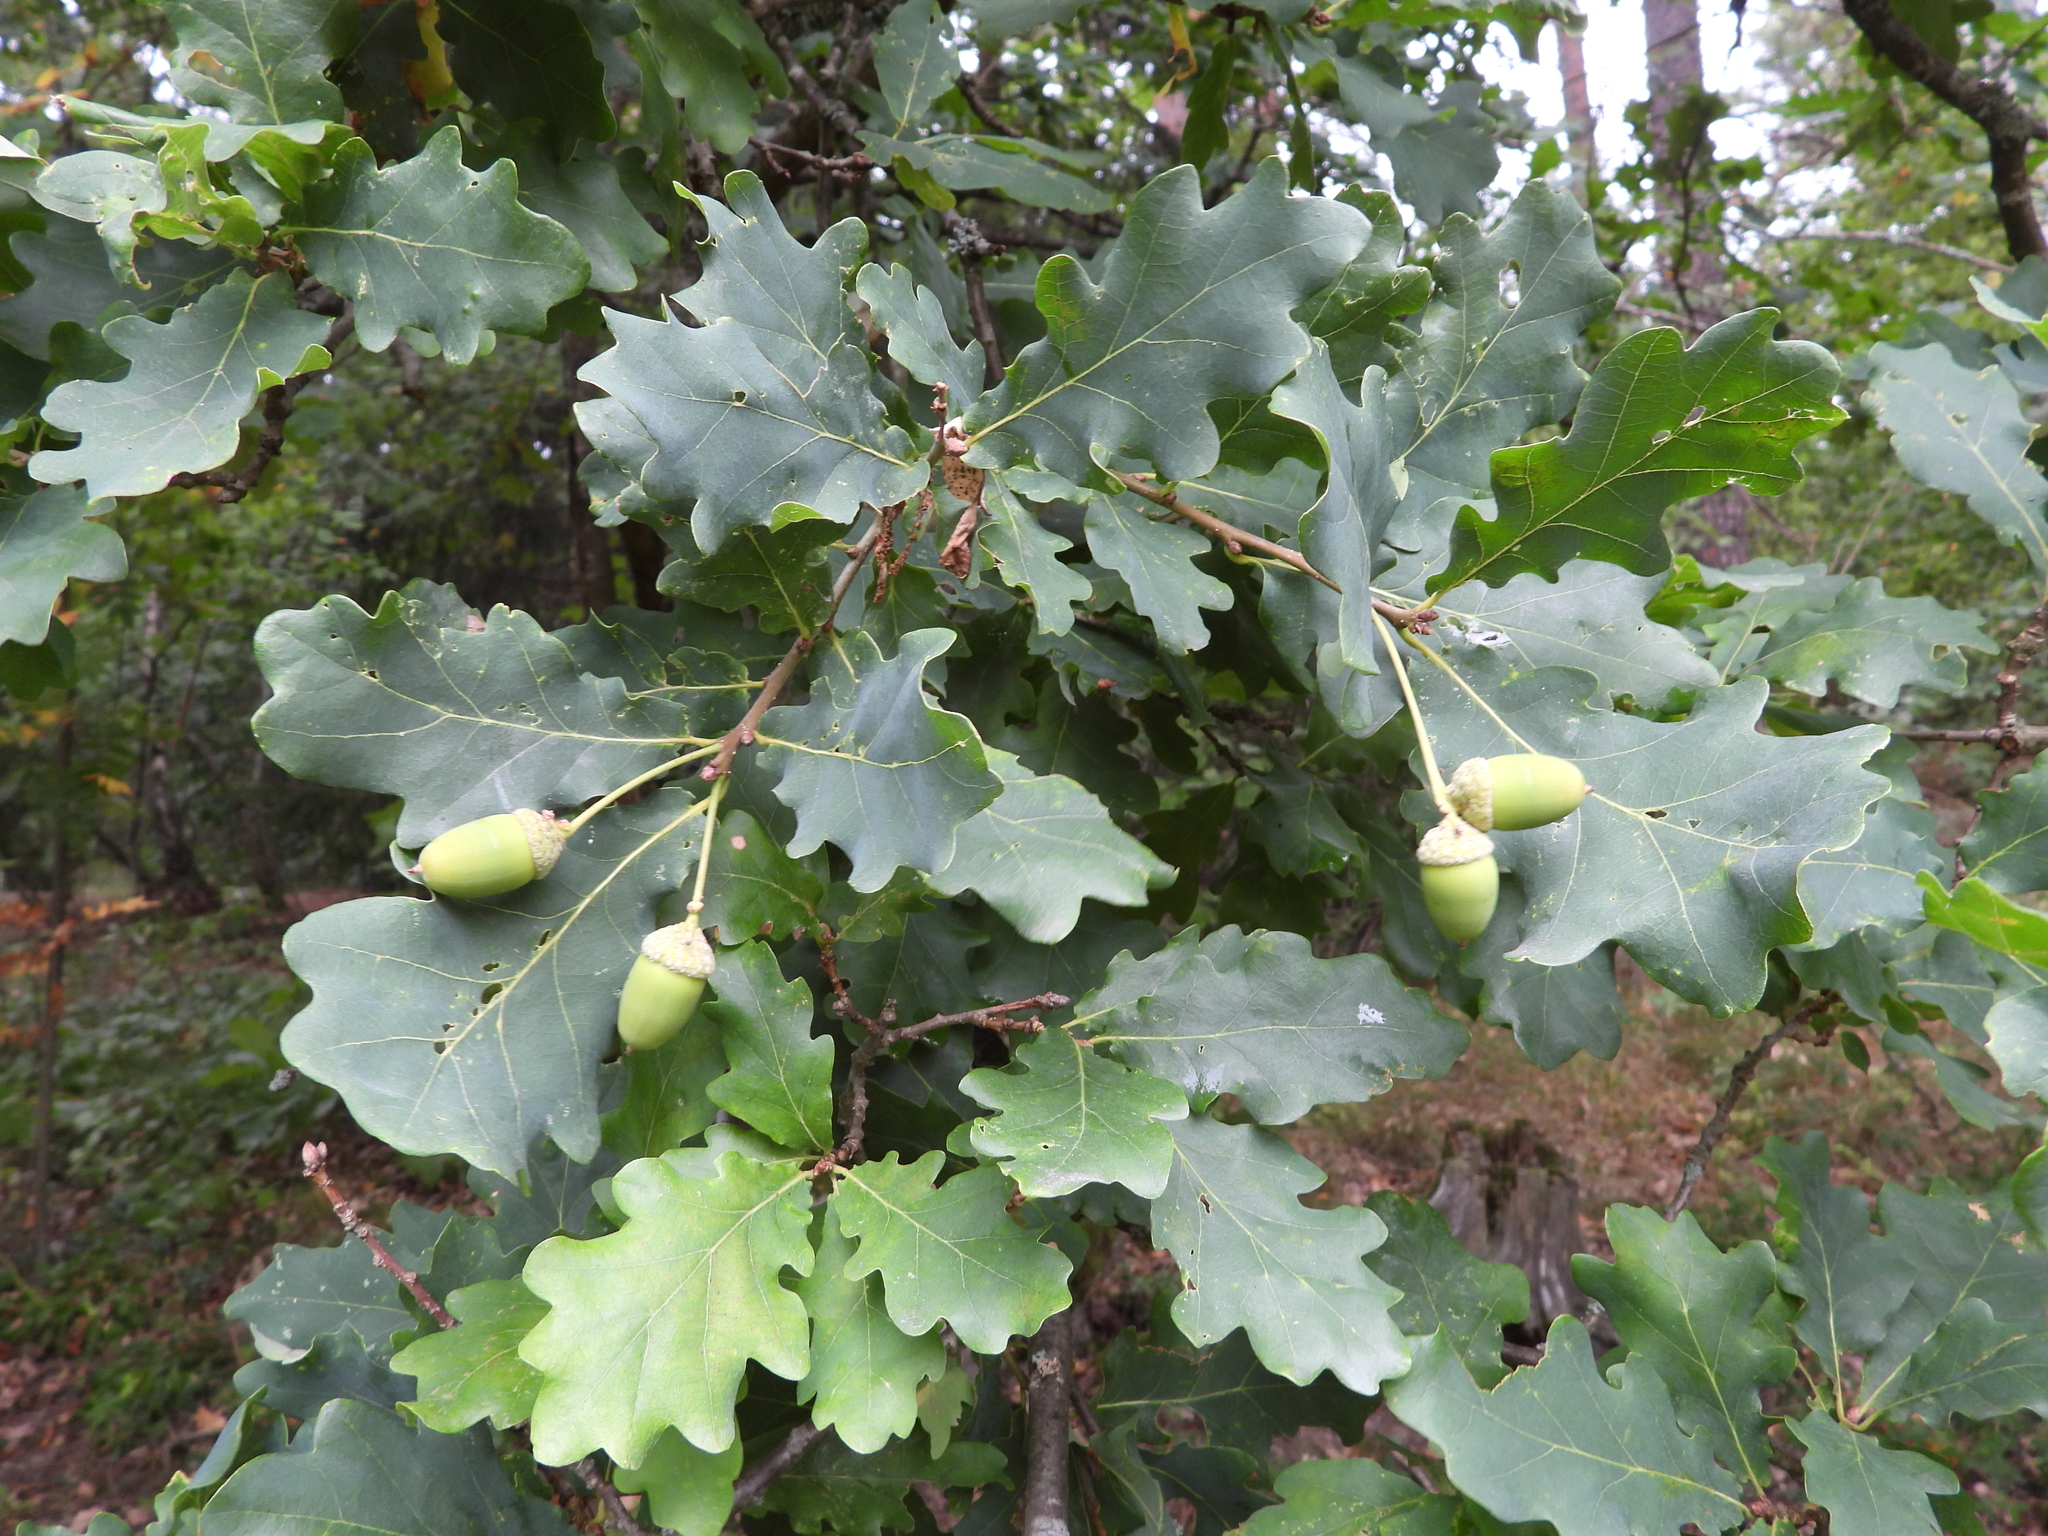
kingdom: Plantae
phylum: Tracheophyta
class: Magnoliopsida
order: Fagales
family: Fagaceae
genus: Quercus
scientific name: Quercus robur
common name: Pedunculate oak
